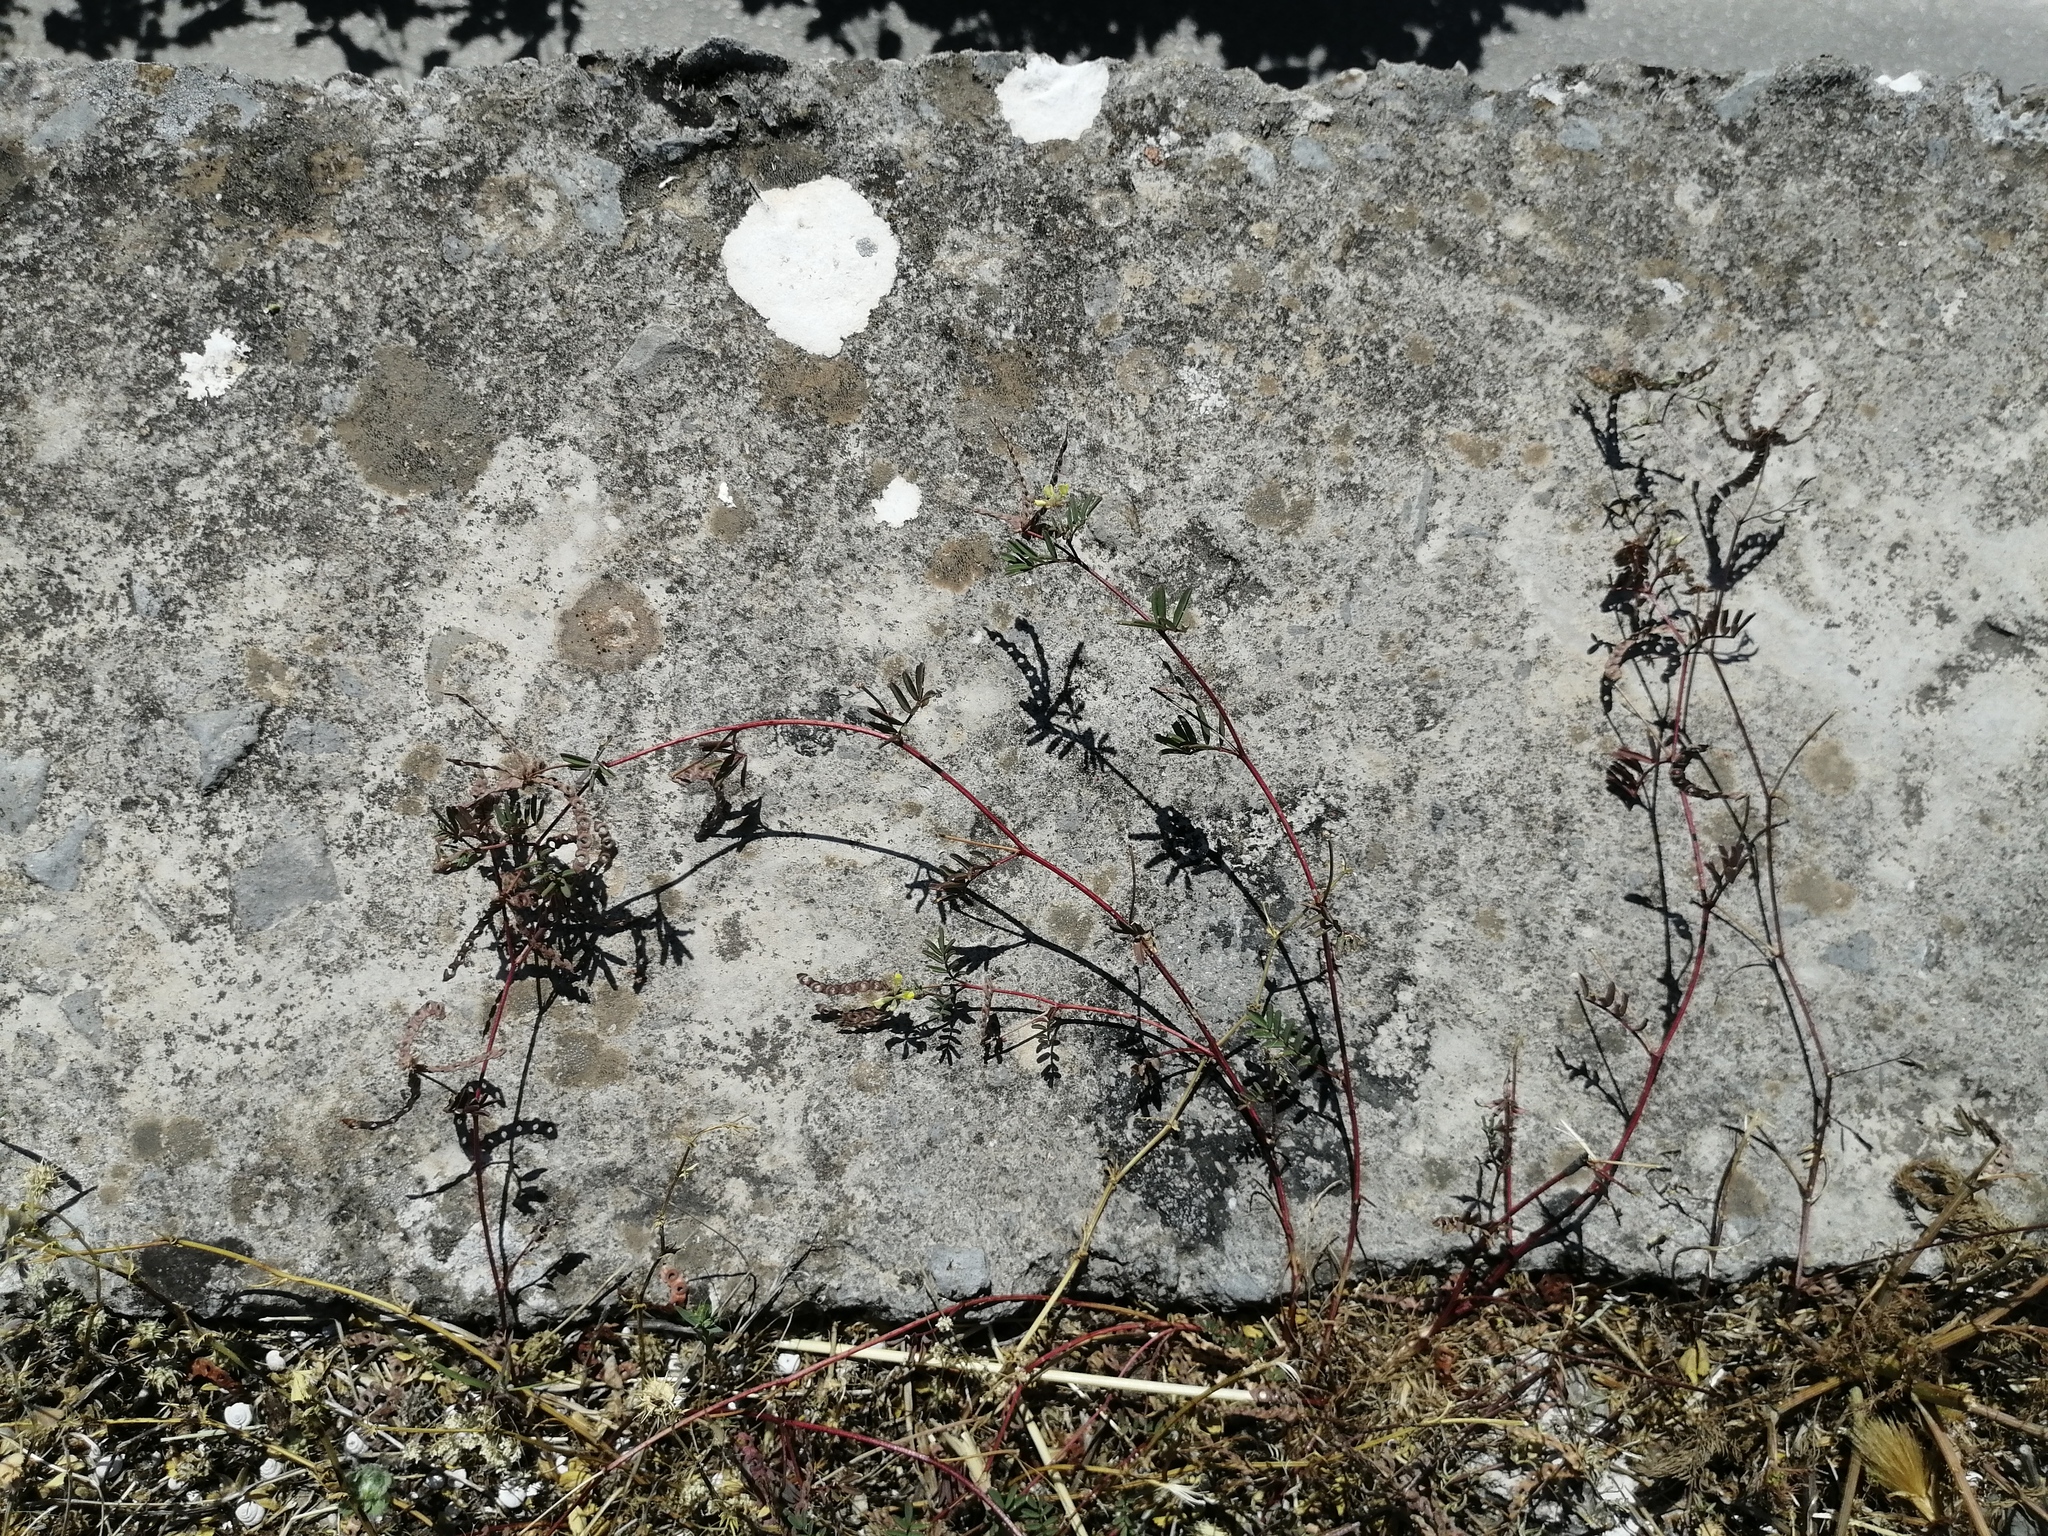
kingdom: Plantae
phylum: Tracheophyta
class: Magnoliopsida
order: Fabales
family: Fabaceae
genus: Hippocrepis
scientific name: Hippocrepis ciliata
